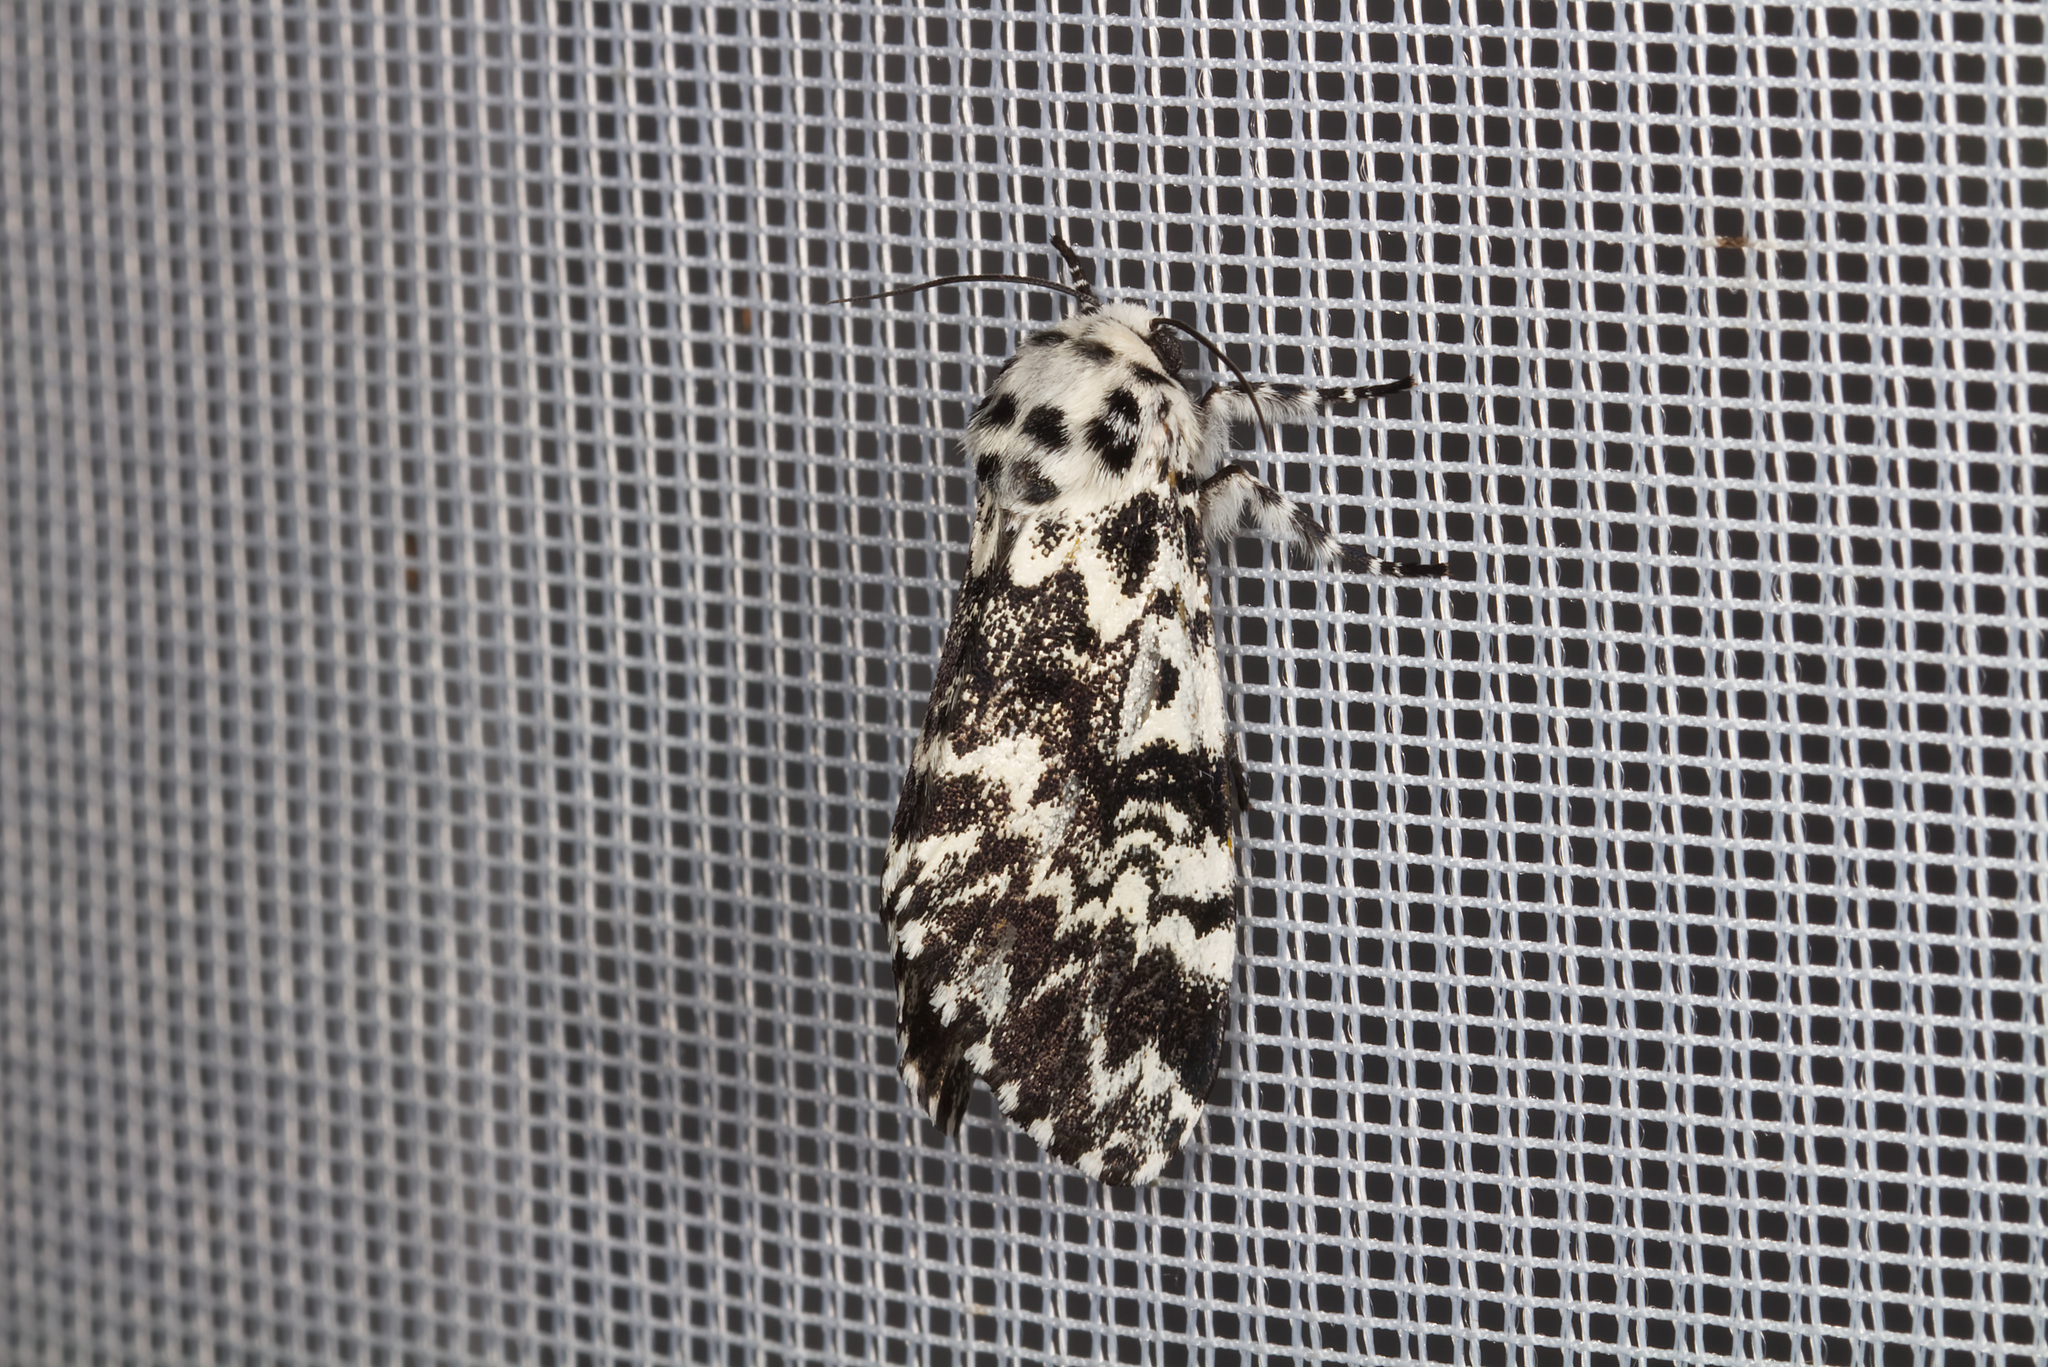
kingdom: Animalia
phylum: Arthropoda
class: Insecta
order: Lepidoptera
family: Noctuidae
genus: Panthea
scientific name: Panthea coenobita
